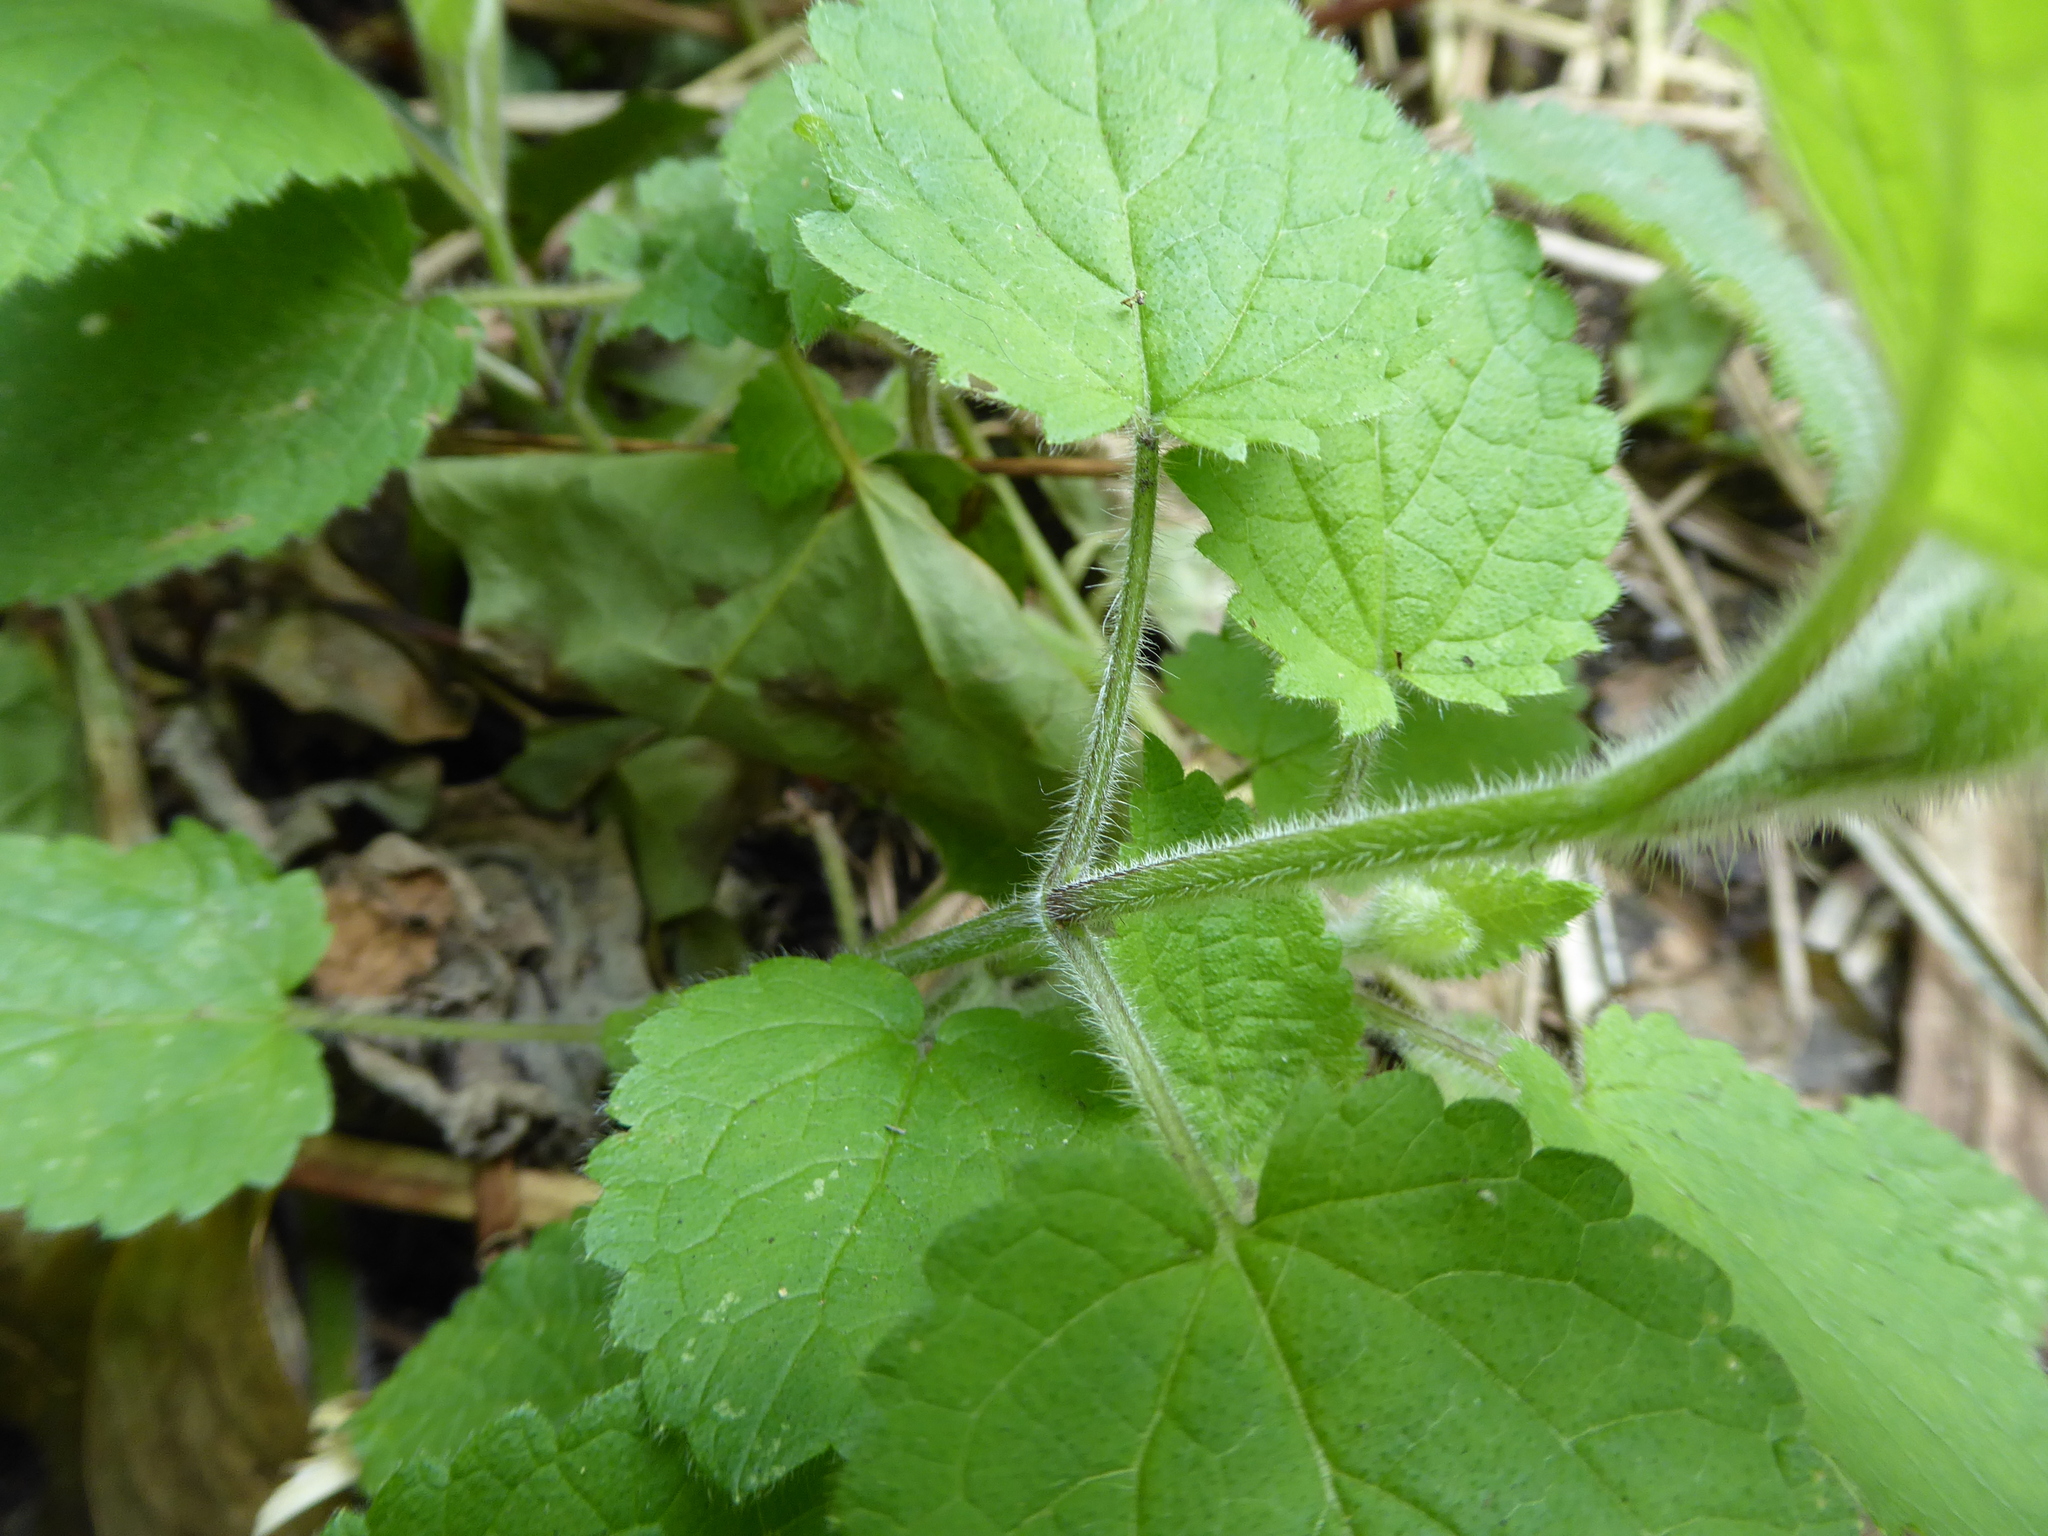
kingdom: Plantae
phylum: Tracheophyta
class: Magnoliopsida
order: Lamiales
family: Lamiaceae
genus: Stachys
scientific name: Stachys sylvatica
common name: Hedge woundwort
